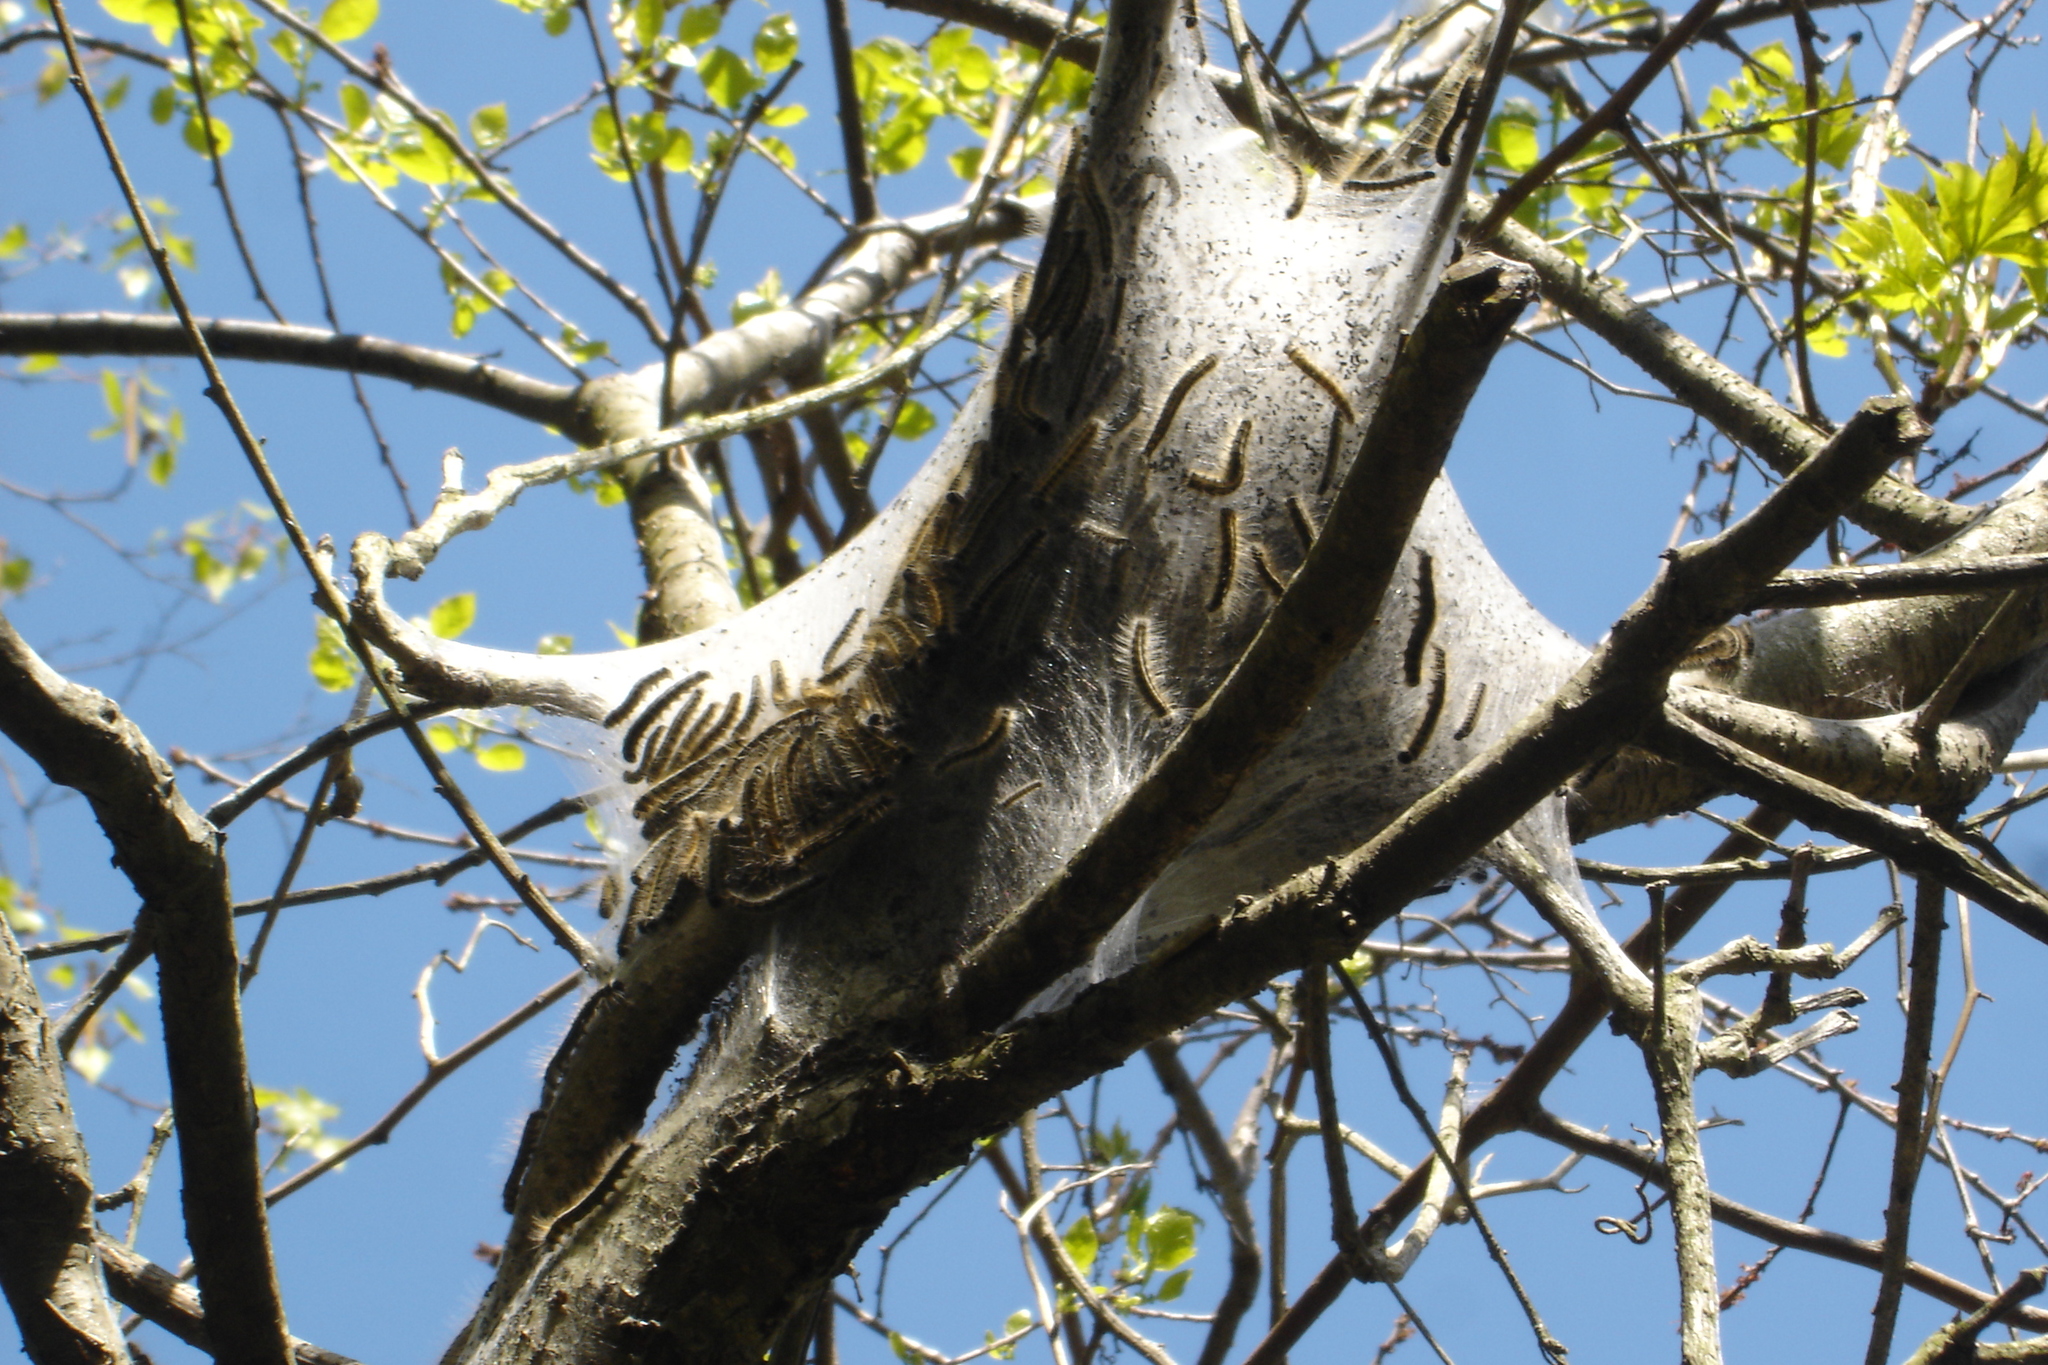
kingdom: Animalia
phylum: Arthropoda
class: Insecta
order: Lepidoptera
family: Lasiocampidae
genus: Malacosoma
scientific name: Malacosoma americana
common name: Eastern tent caterpillar moth
